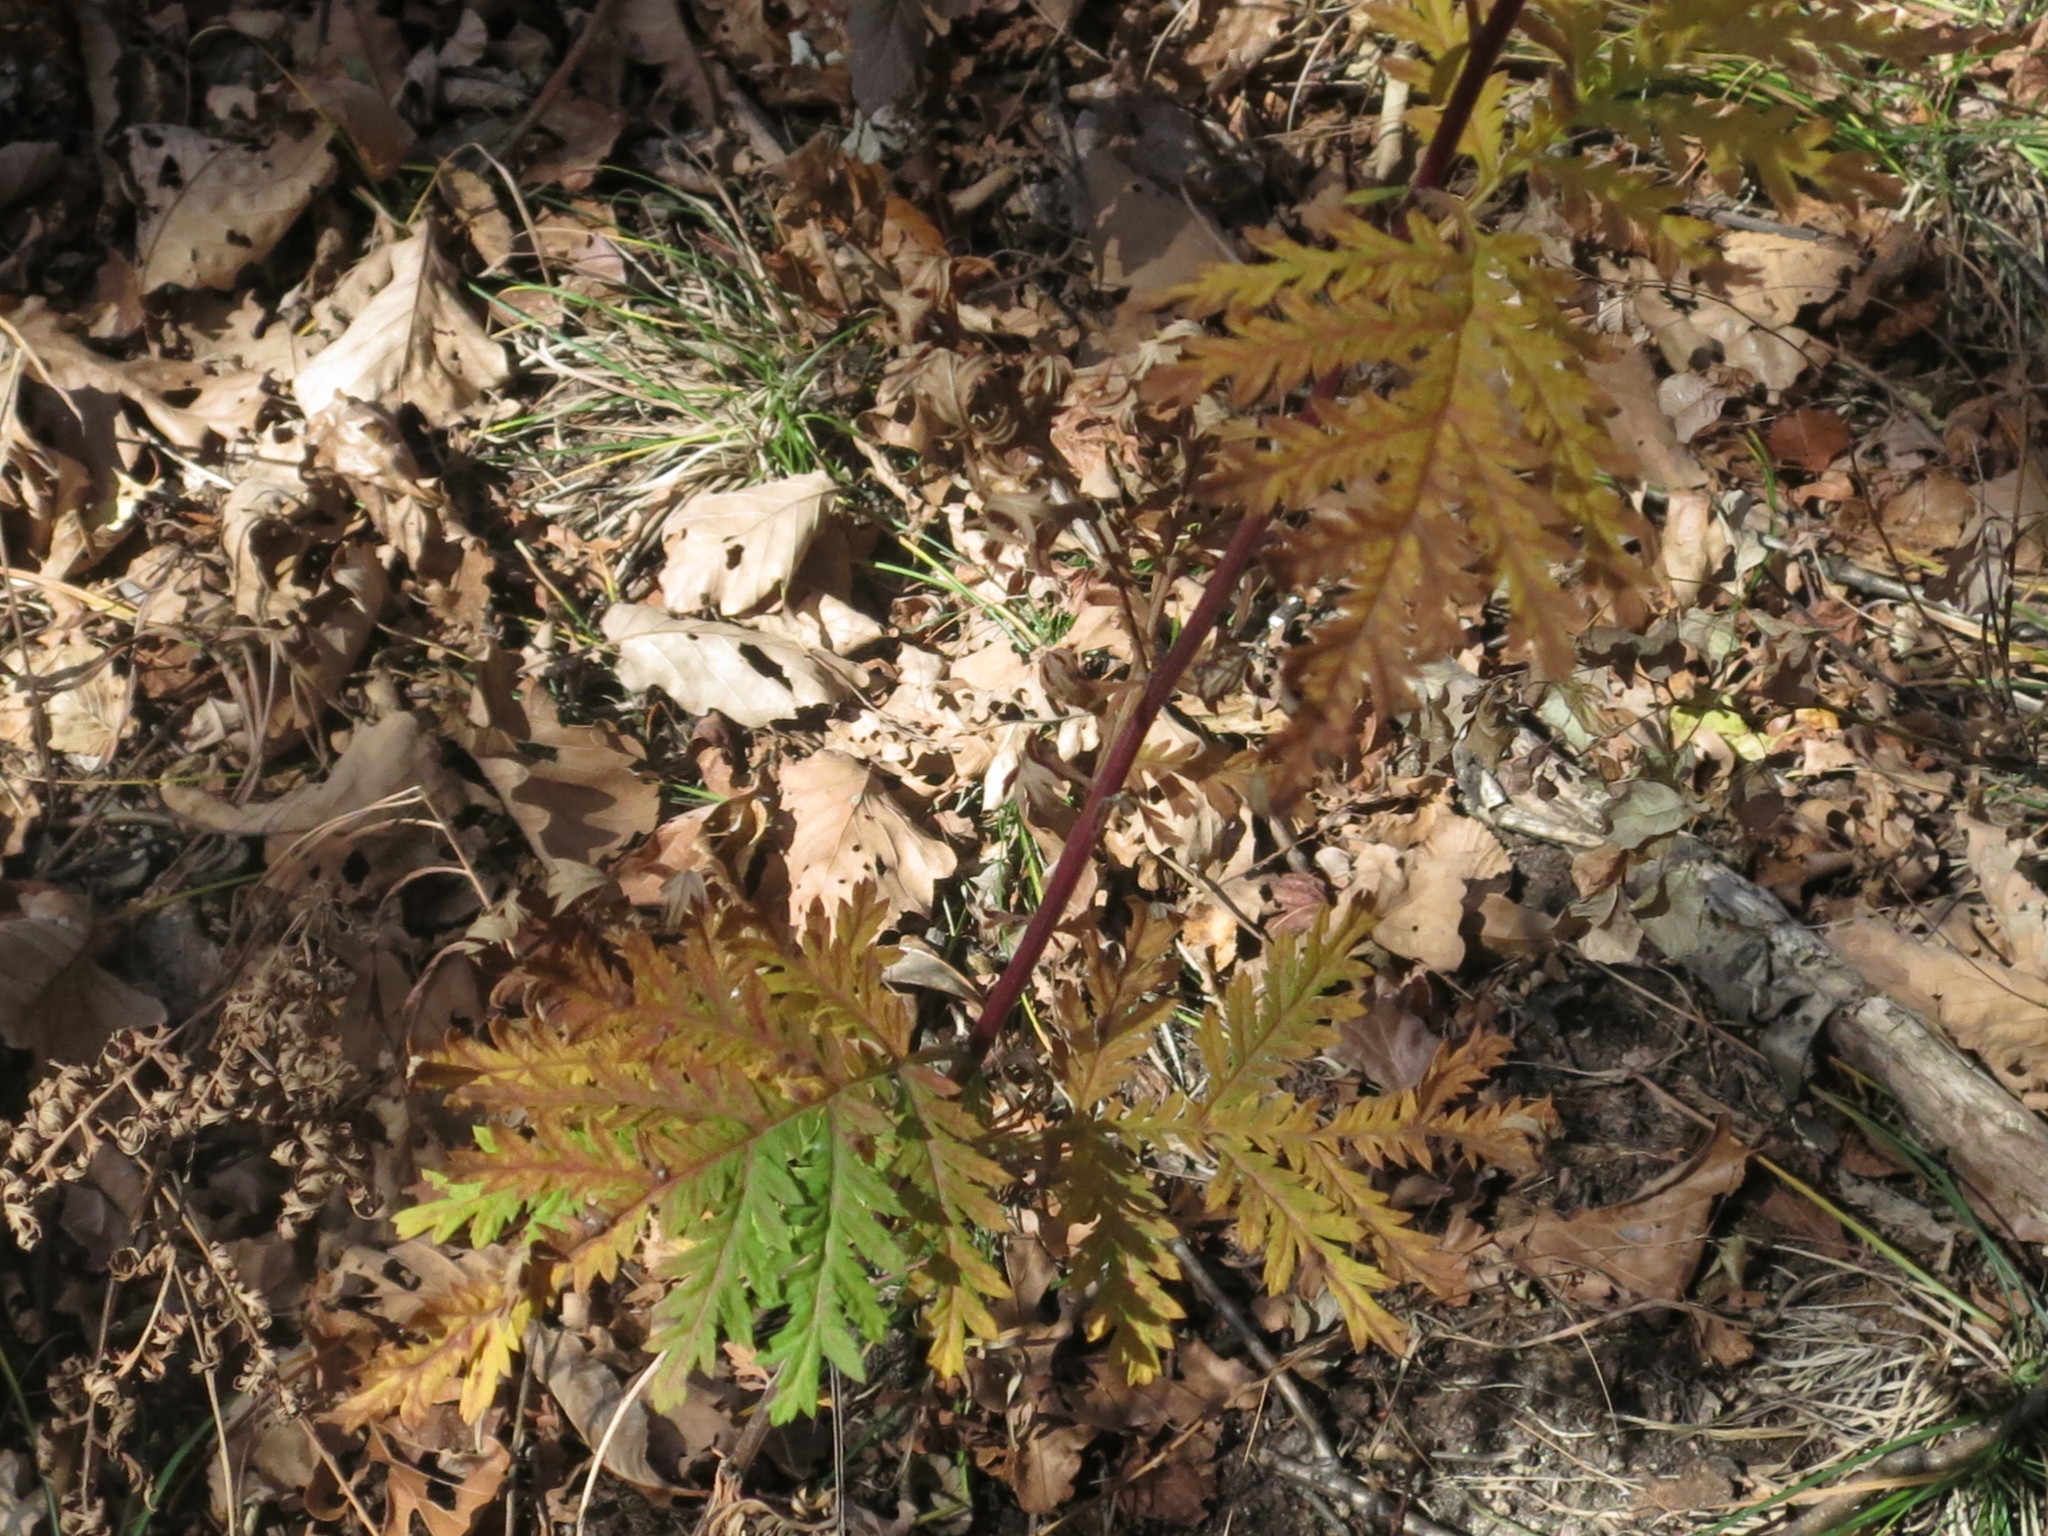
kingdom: Plantae
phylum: Tracheophyta
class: Magnoliopsida
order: Asterales
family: Asteraceae
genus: Artemisia
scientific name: Artemisia gmelinii
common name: Gmelin's wormwood
